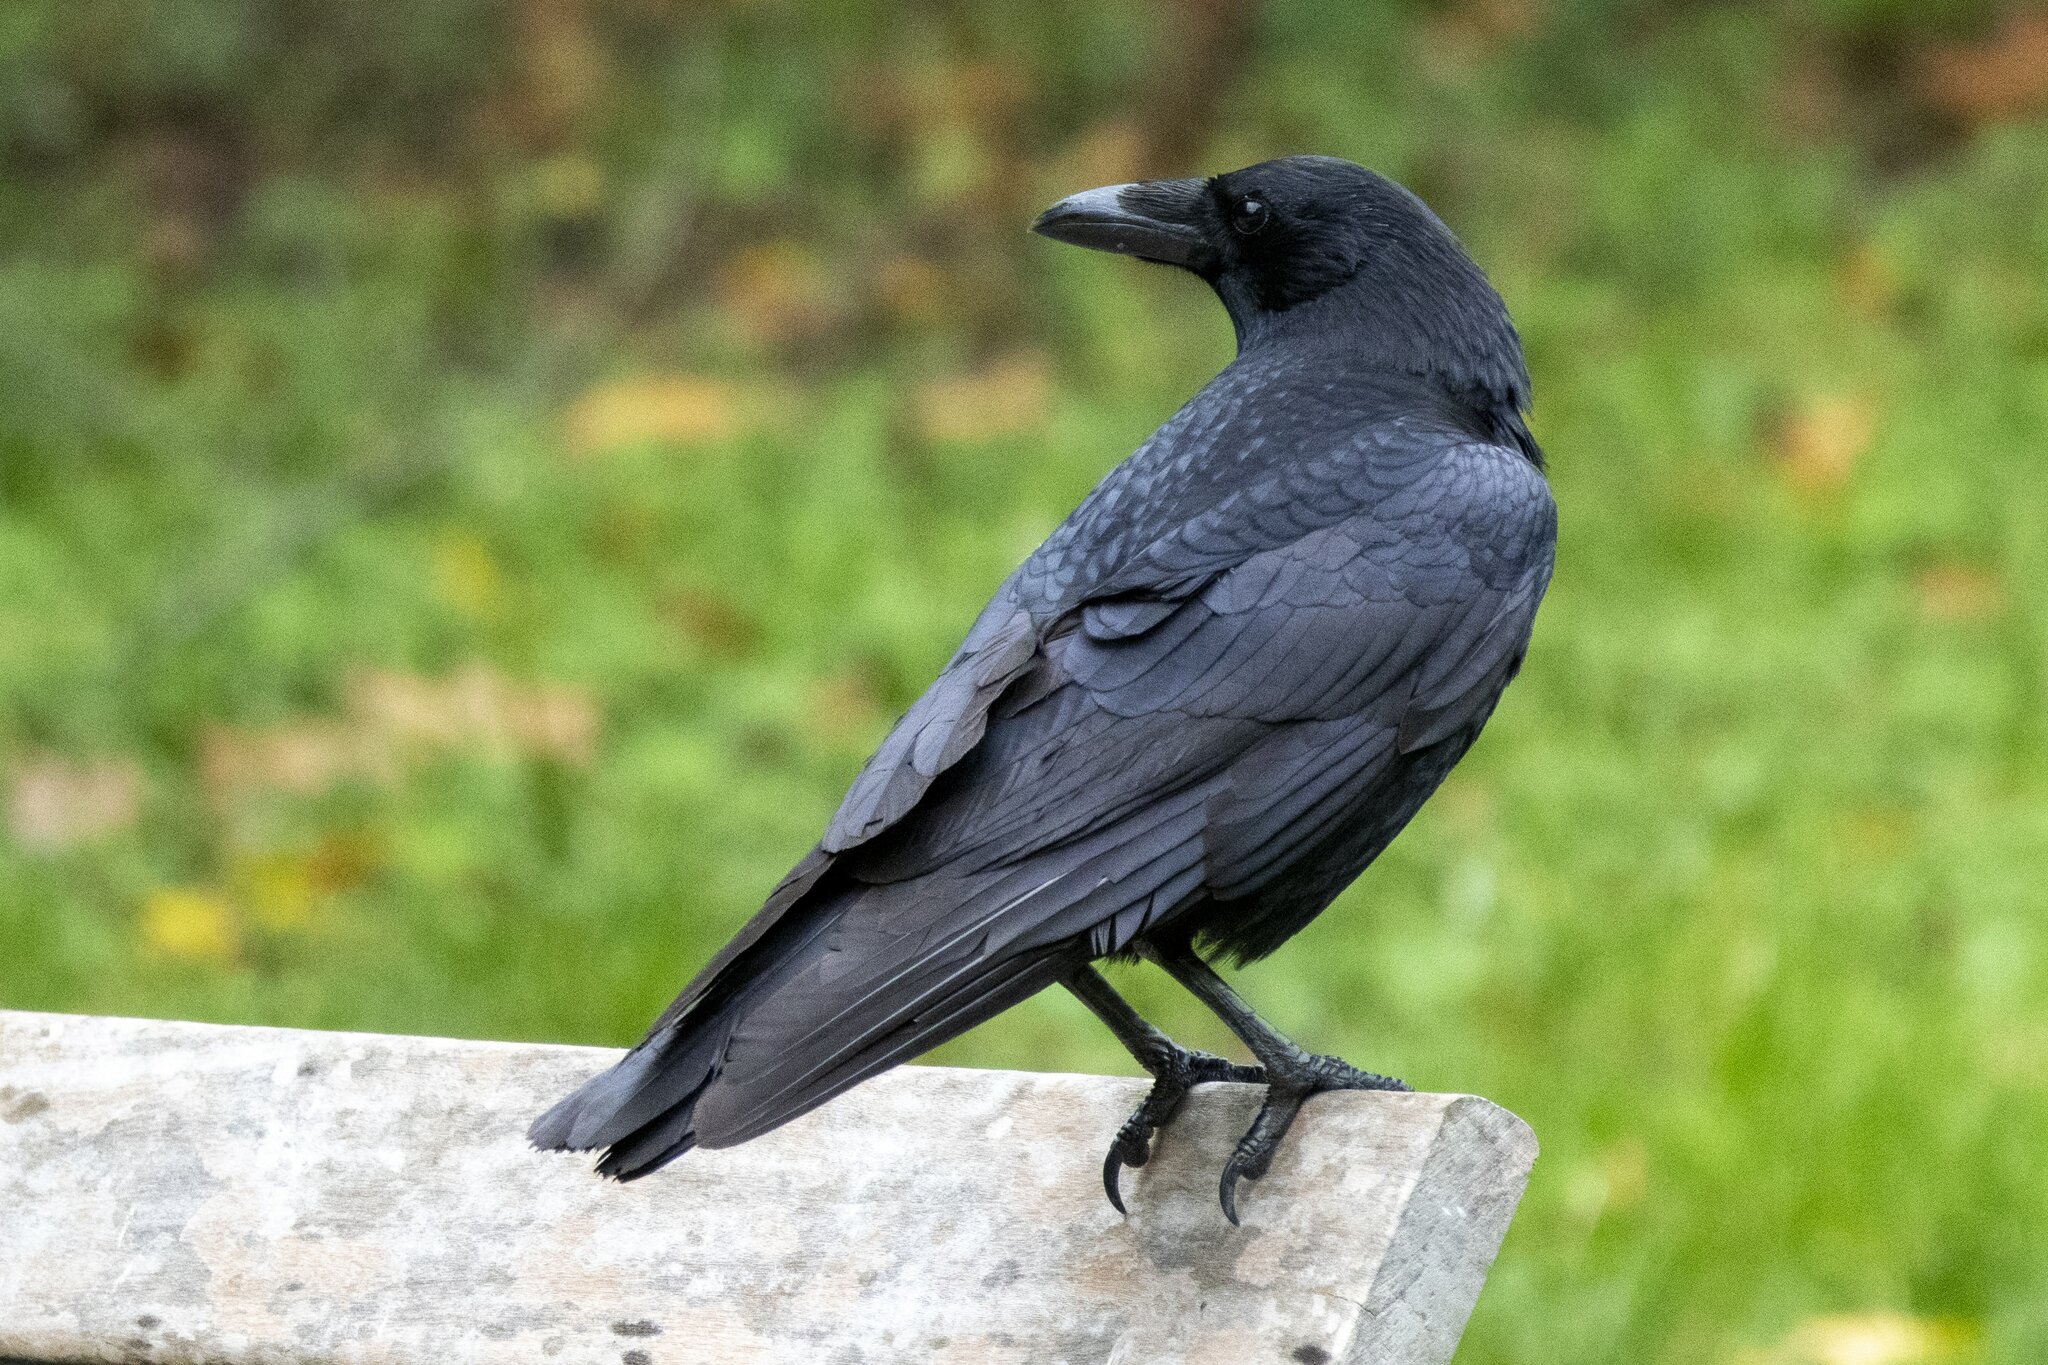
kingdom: Animalia
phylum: Chordata
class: Aves
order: Passeriformes
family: Corvidae
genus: Corvus
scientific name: Corvus corone
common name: Carrion crow
